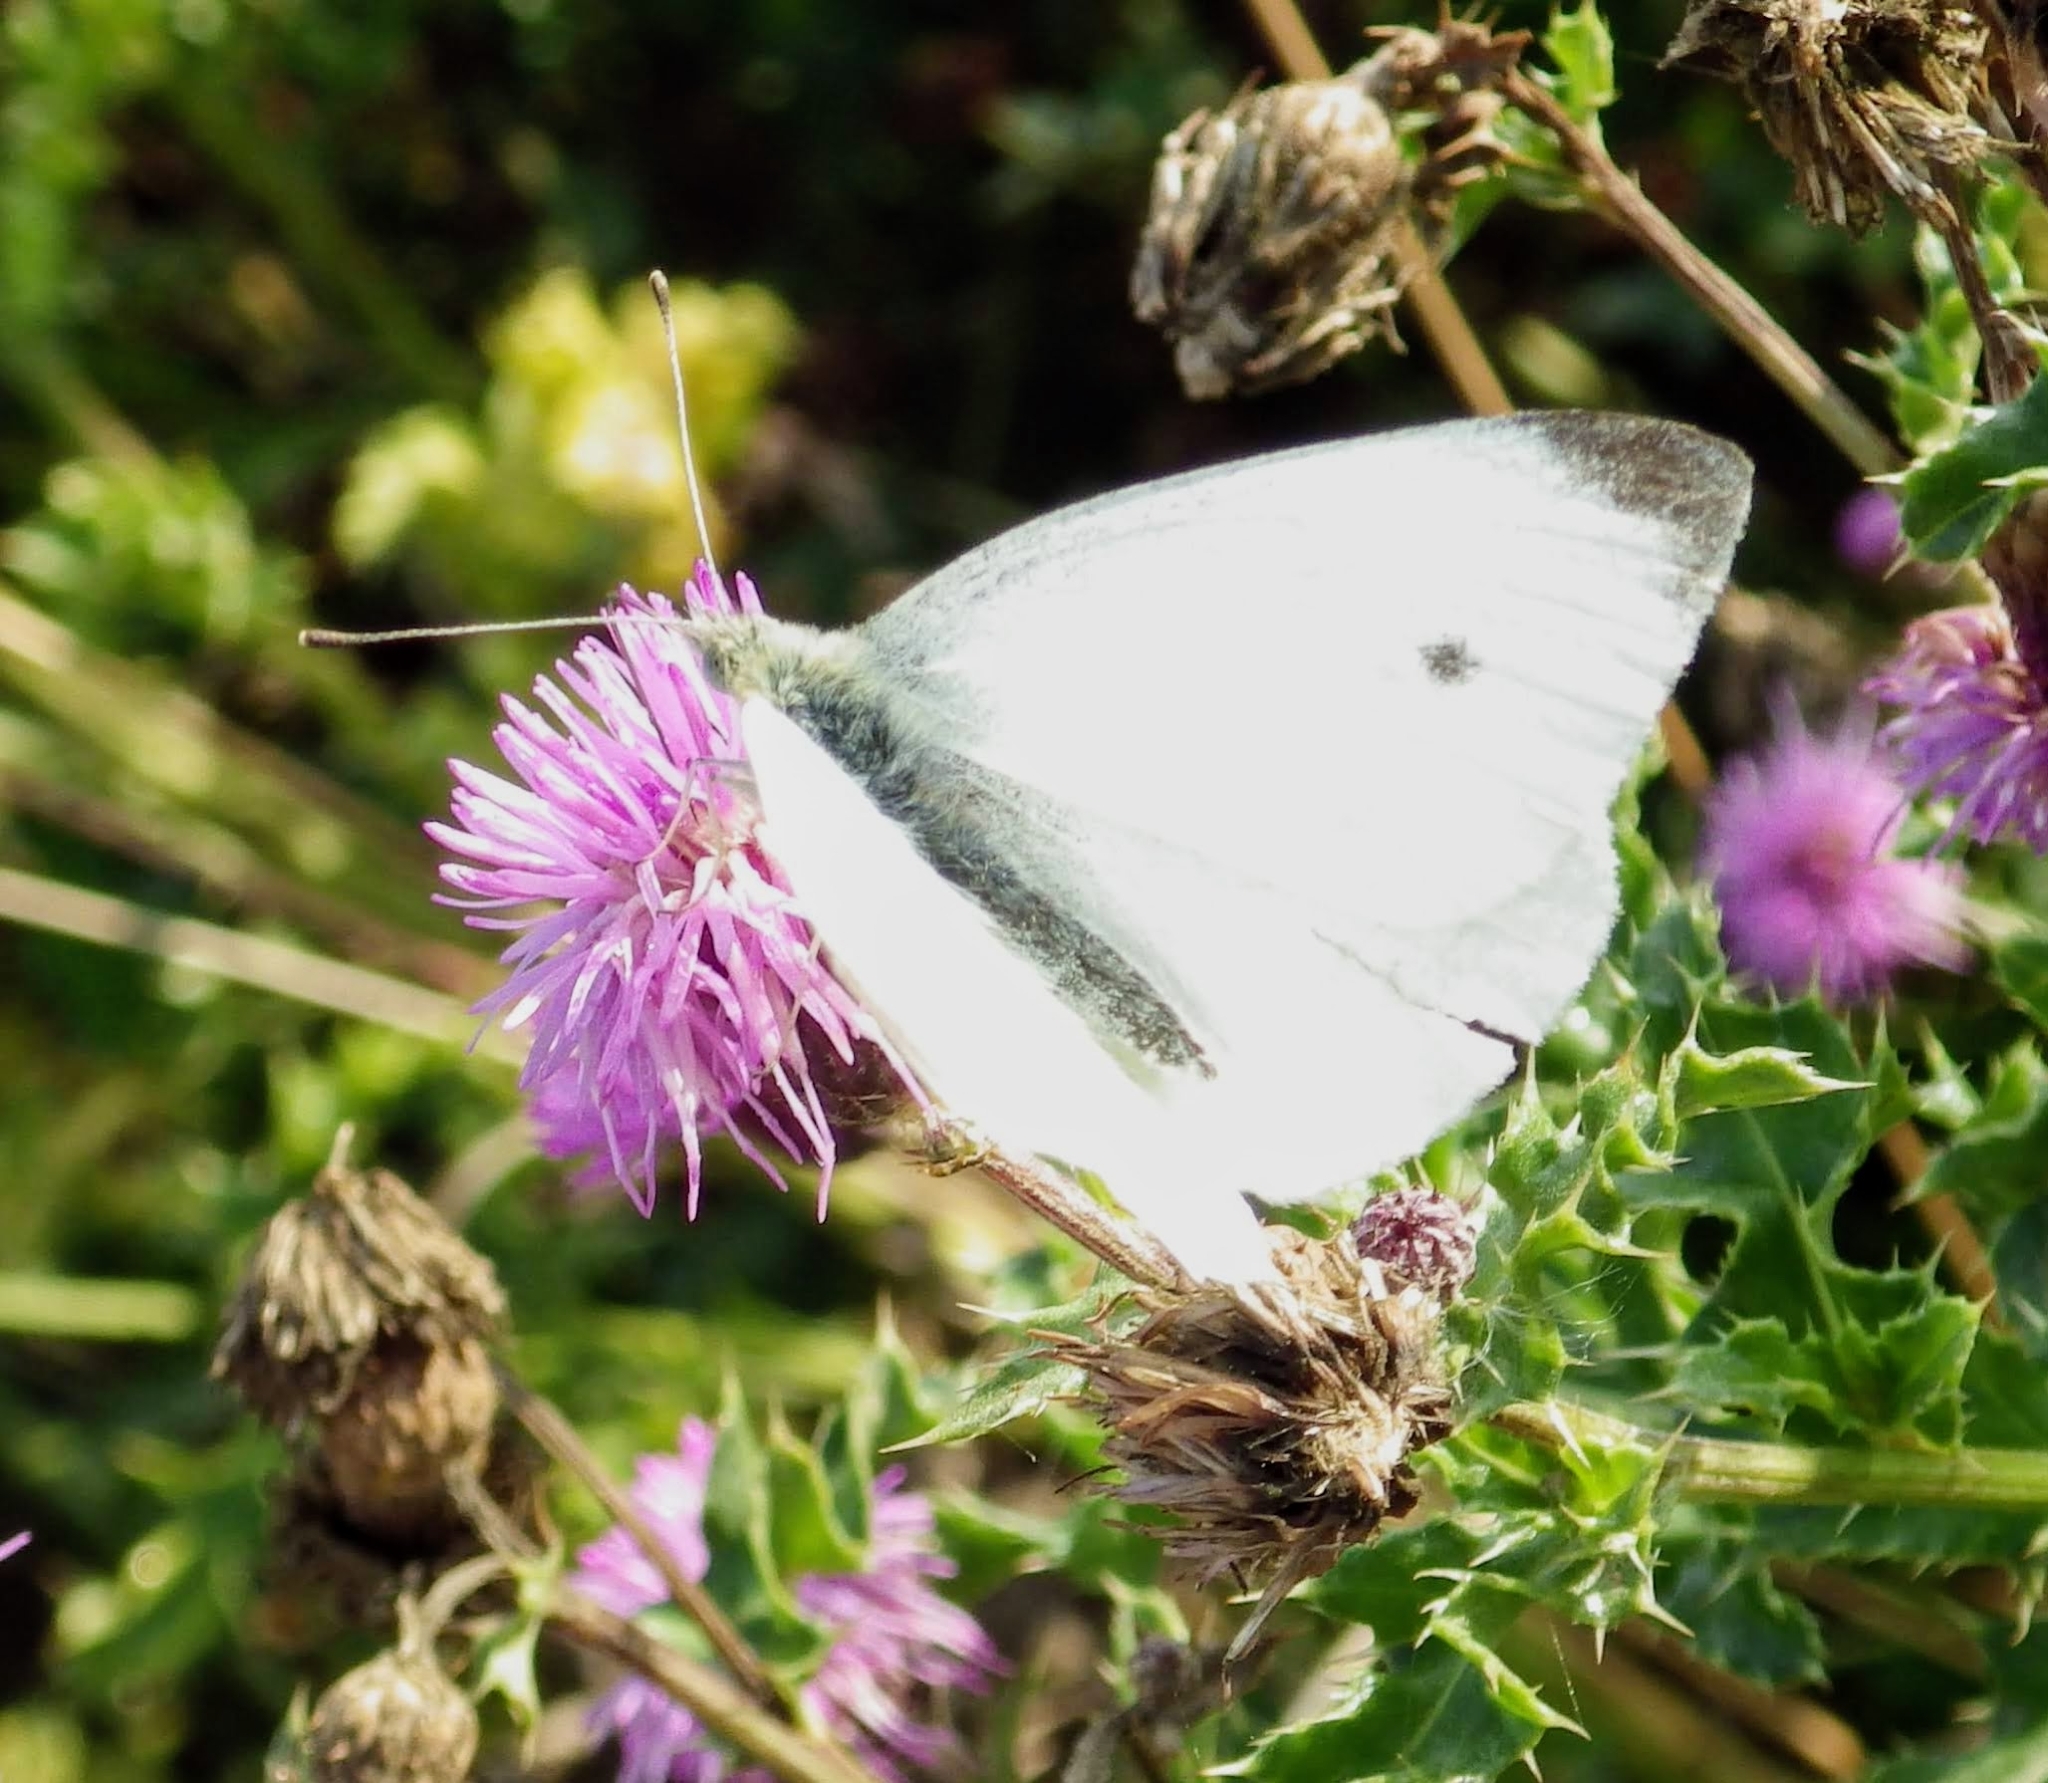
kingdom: Animalia
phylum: Arthropoda
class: Insecta
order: Lepidoptera
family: Pieridae
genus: Pieris
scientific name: Pieris rapae
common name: Small white
